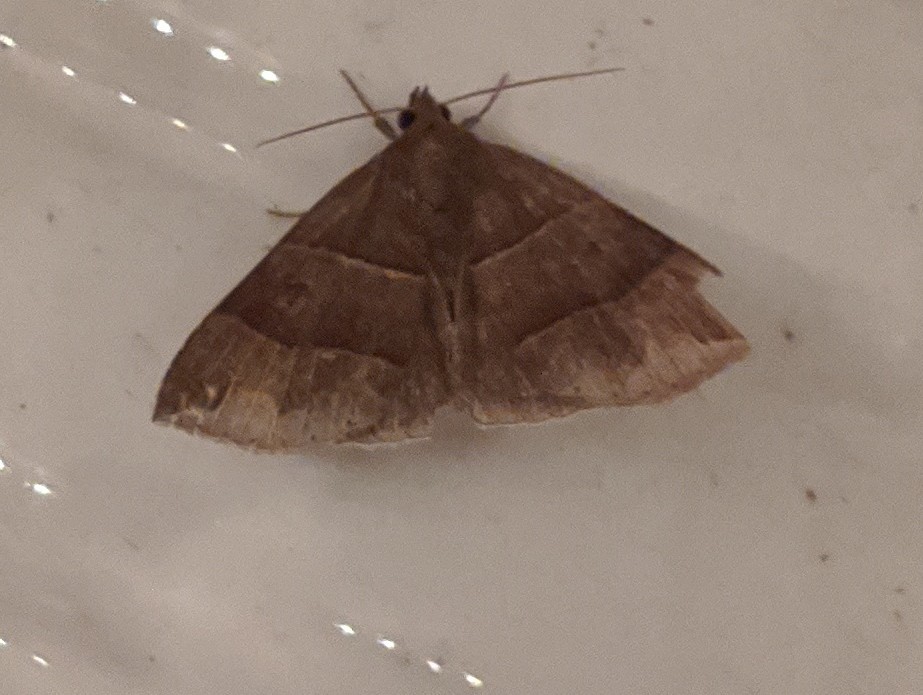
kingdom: Animalia
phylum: Arthropoda
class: Insecta
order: Lepidoptera
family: Erebidae
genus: Parallelia
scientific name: Parallelia bistriaris
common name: Maple looper moth
